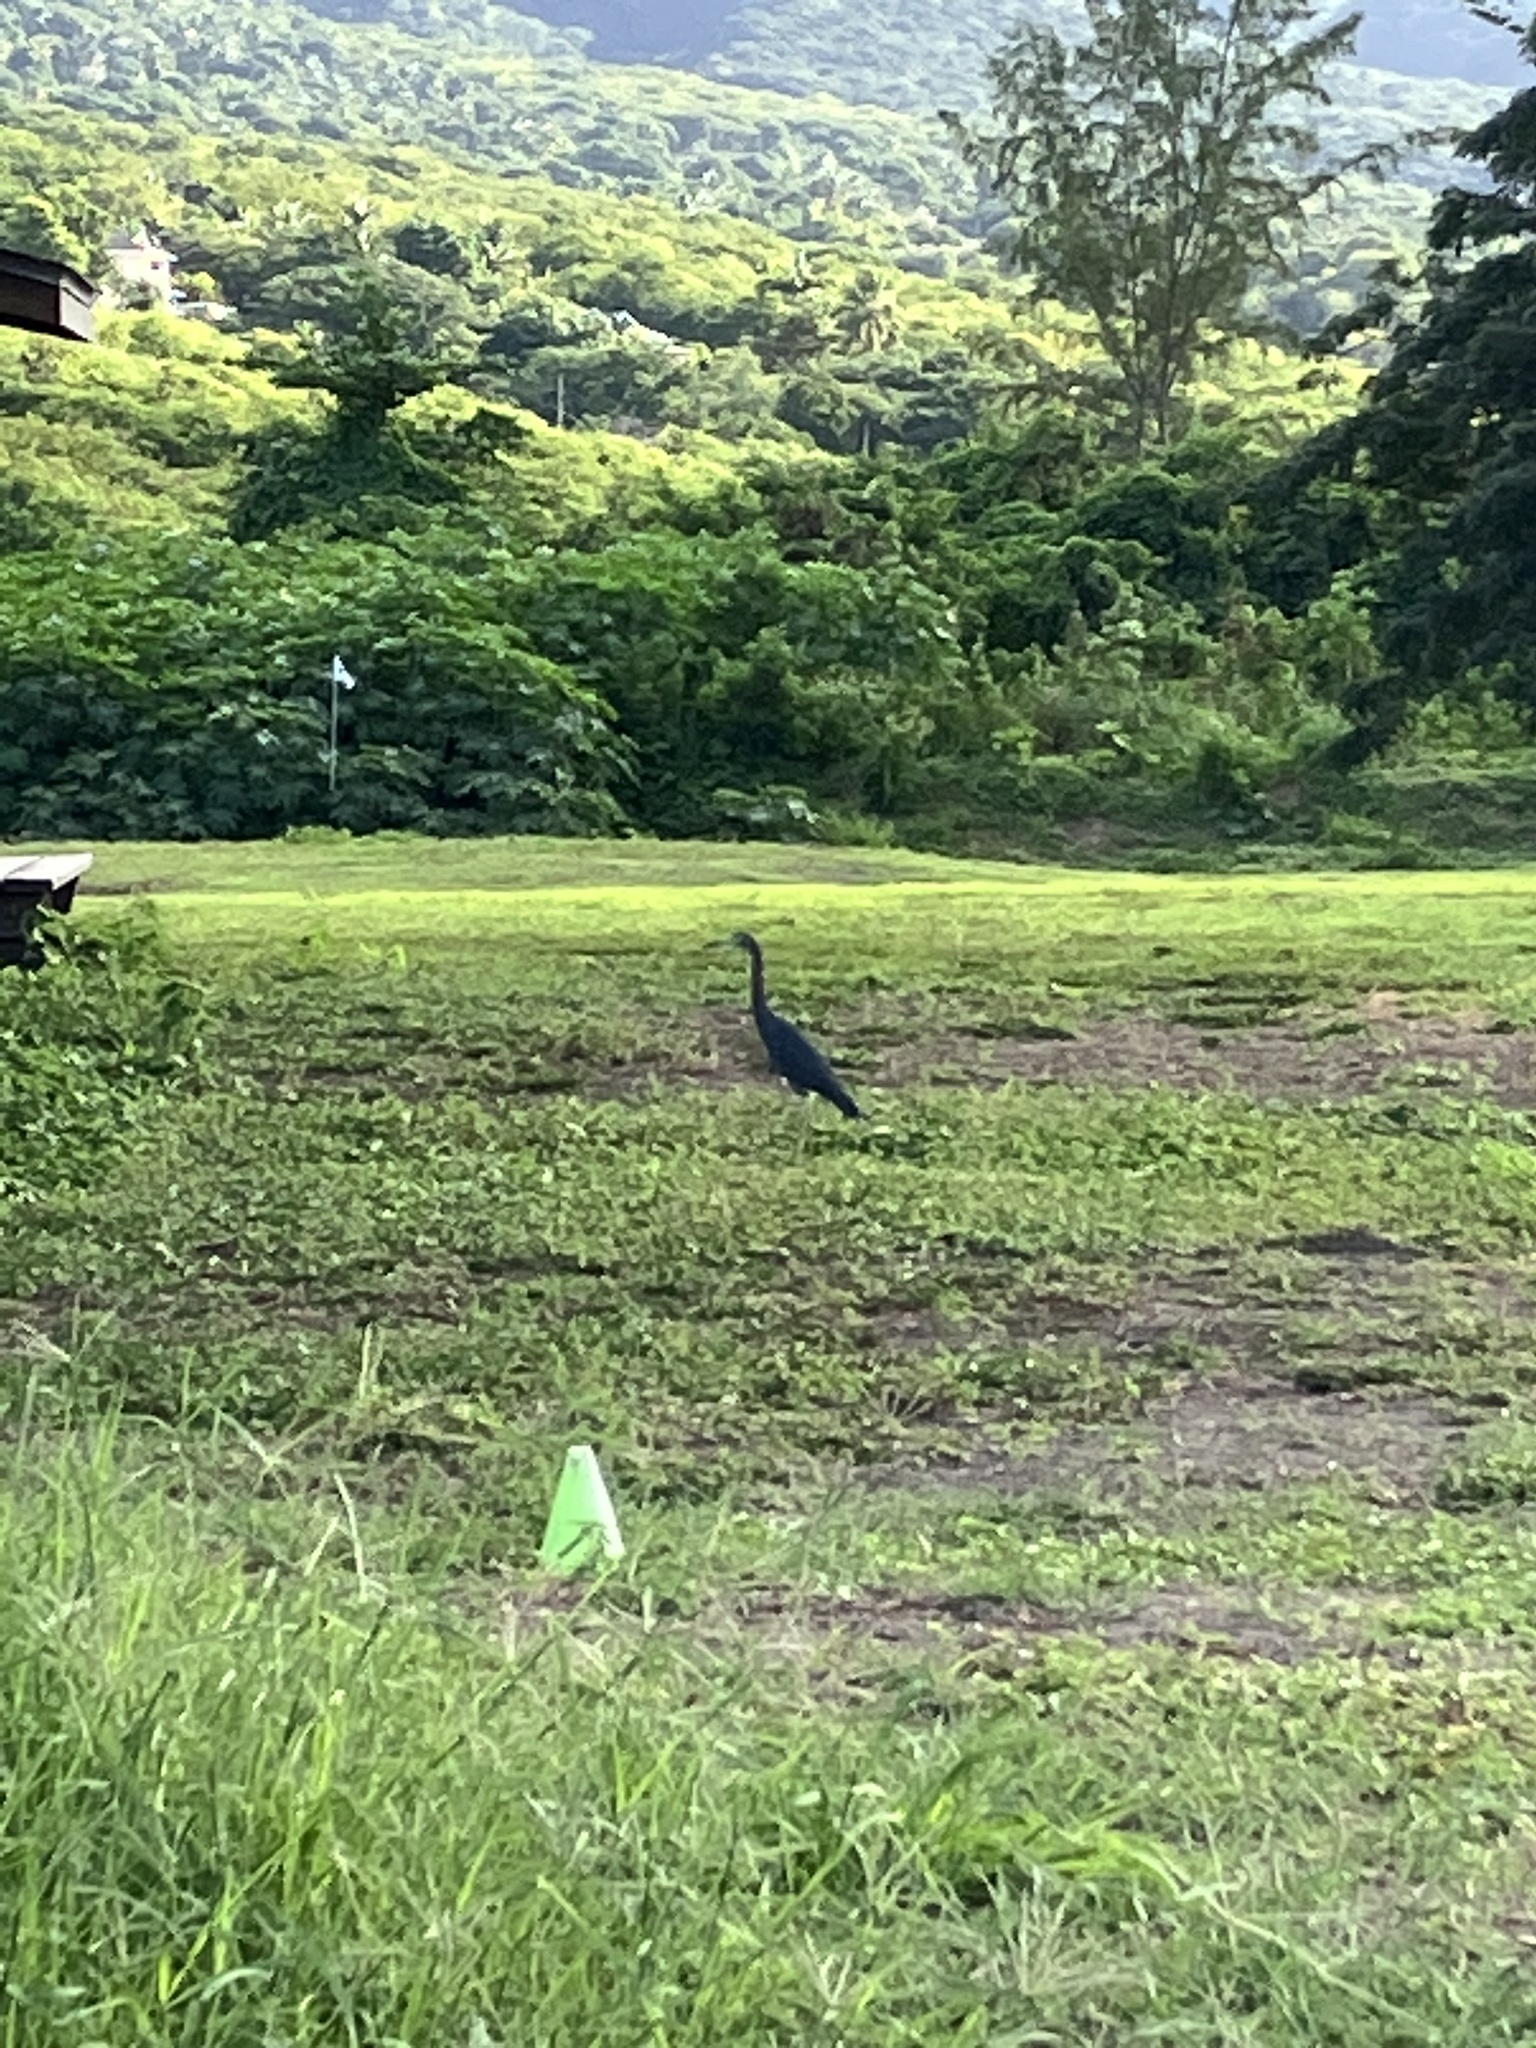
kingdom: Animalia
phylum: Chordata
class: Aves
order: Pelecaniformes
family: Ardeidae
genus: Egretta
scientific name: Egretta caerulea
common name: Little blue heron
